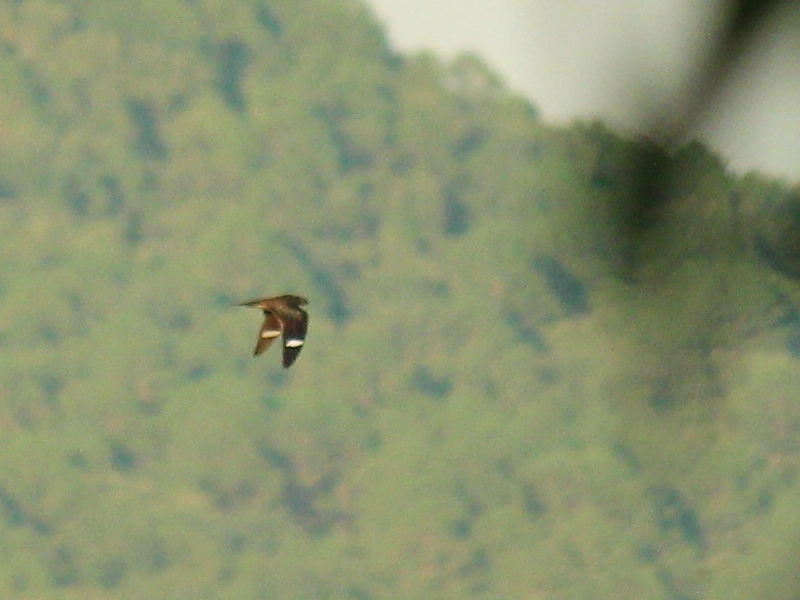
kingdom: Animalia
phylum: Chordata
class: Aves
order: Caprimulgiformes
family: Caprimulgidae
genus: Chordeiles
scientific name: Chordeiles minor
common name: Common nighthawk
